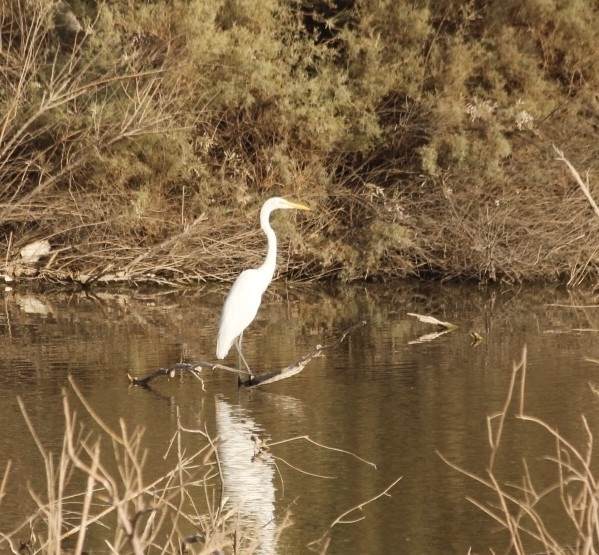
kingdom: Animalia
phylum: Chordata
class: Aves
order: Pelecaniformes
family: Ardeidae
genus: Ardea
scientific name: Ardea alba
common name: Great egret
